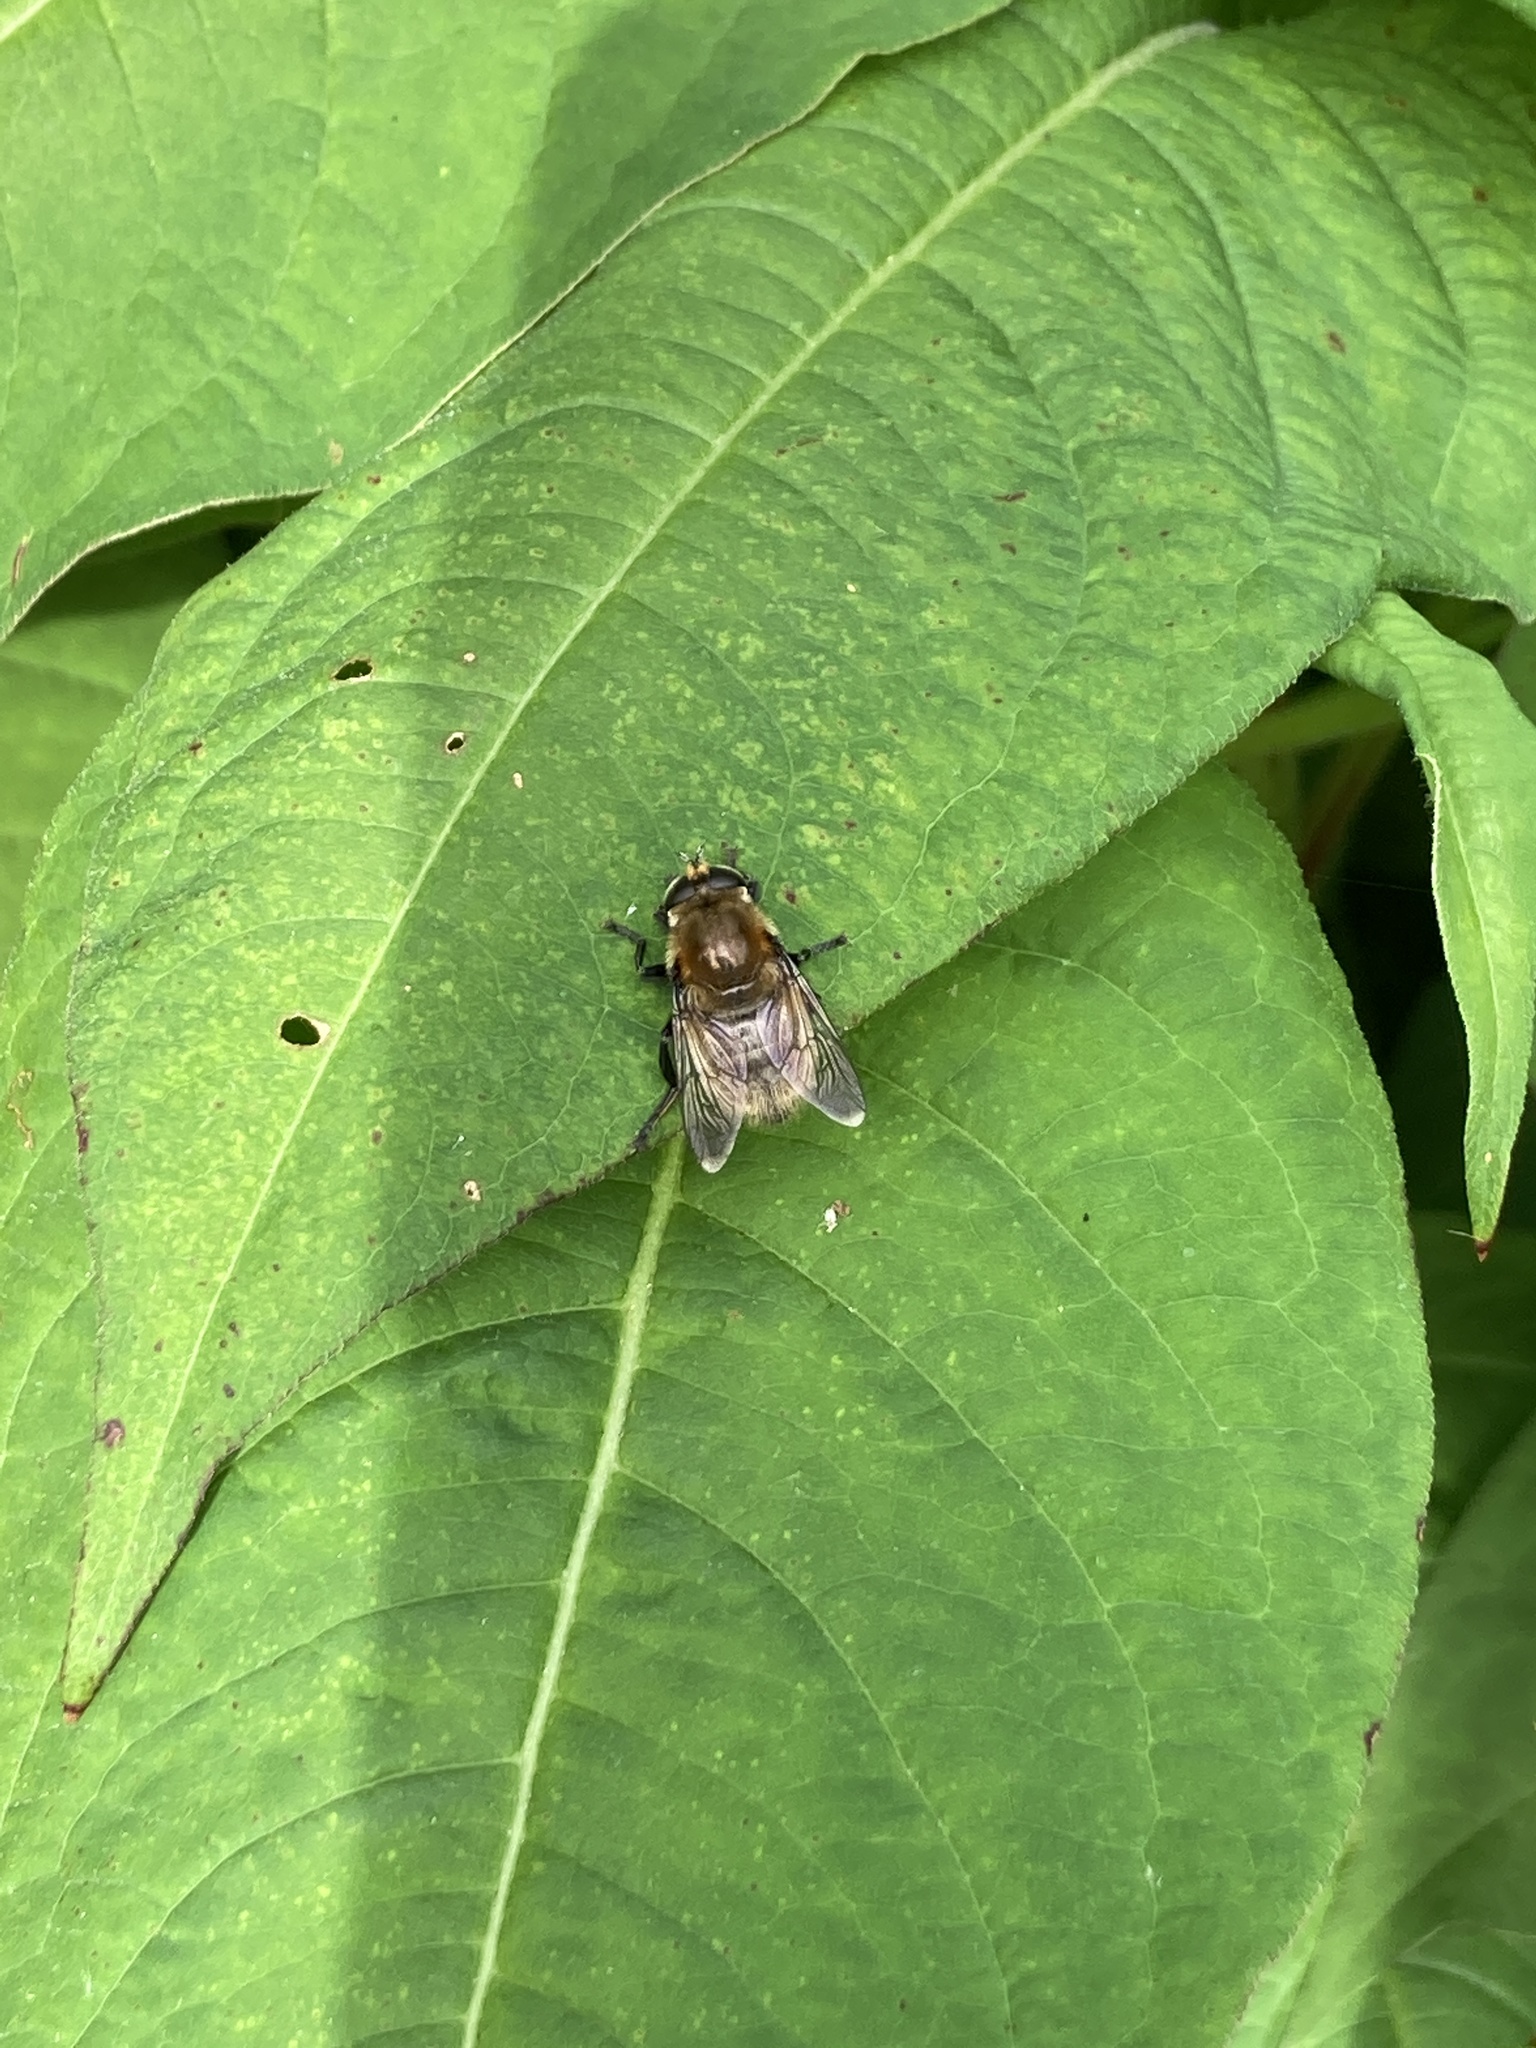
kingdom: Animalia
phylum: Arthropoda
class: Insecta
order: Diptera
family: Syrphidae
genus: Merodon
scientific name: Merodon equestris
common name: Greater bulb-fly
